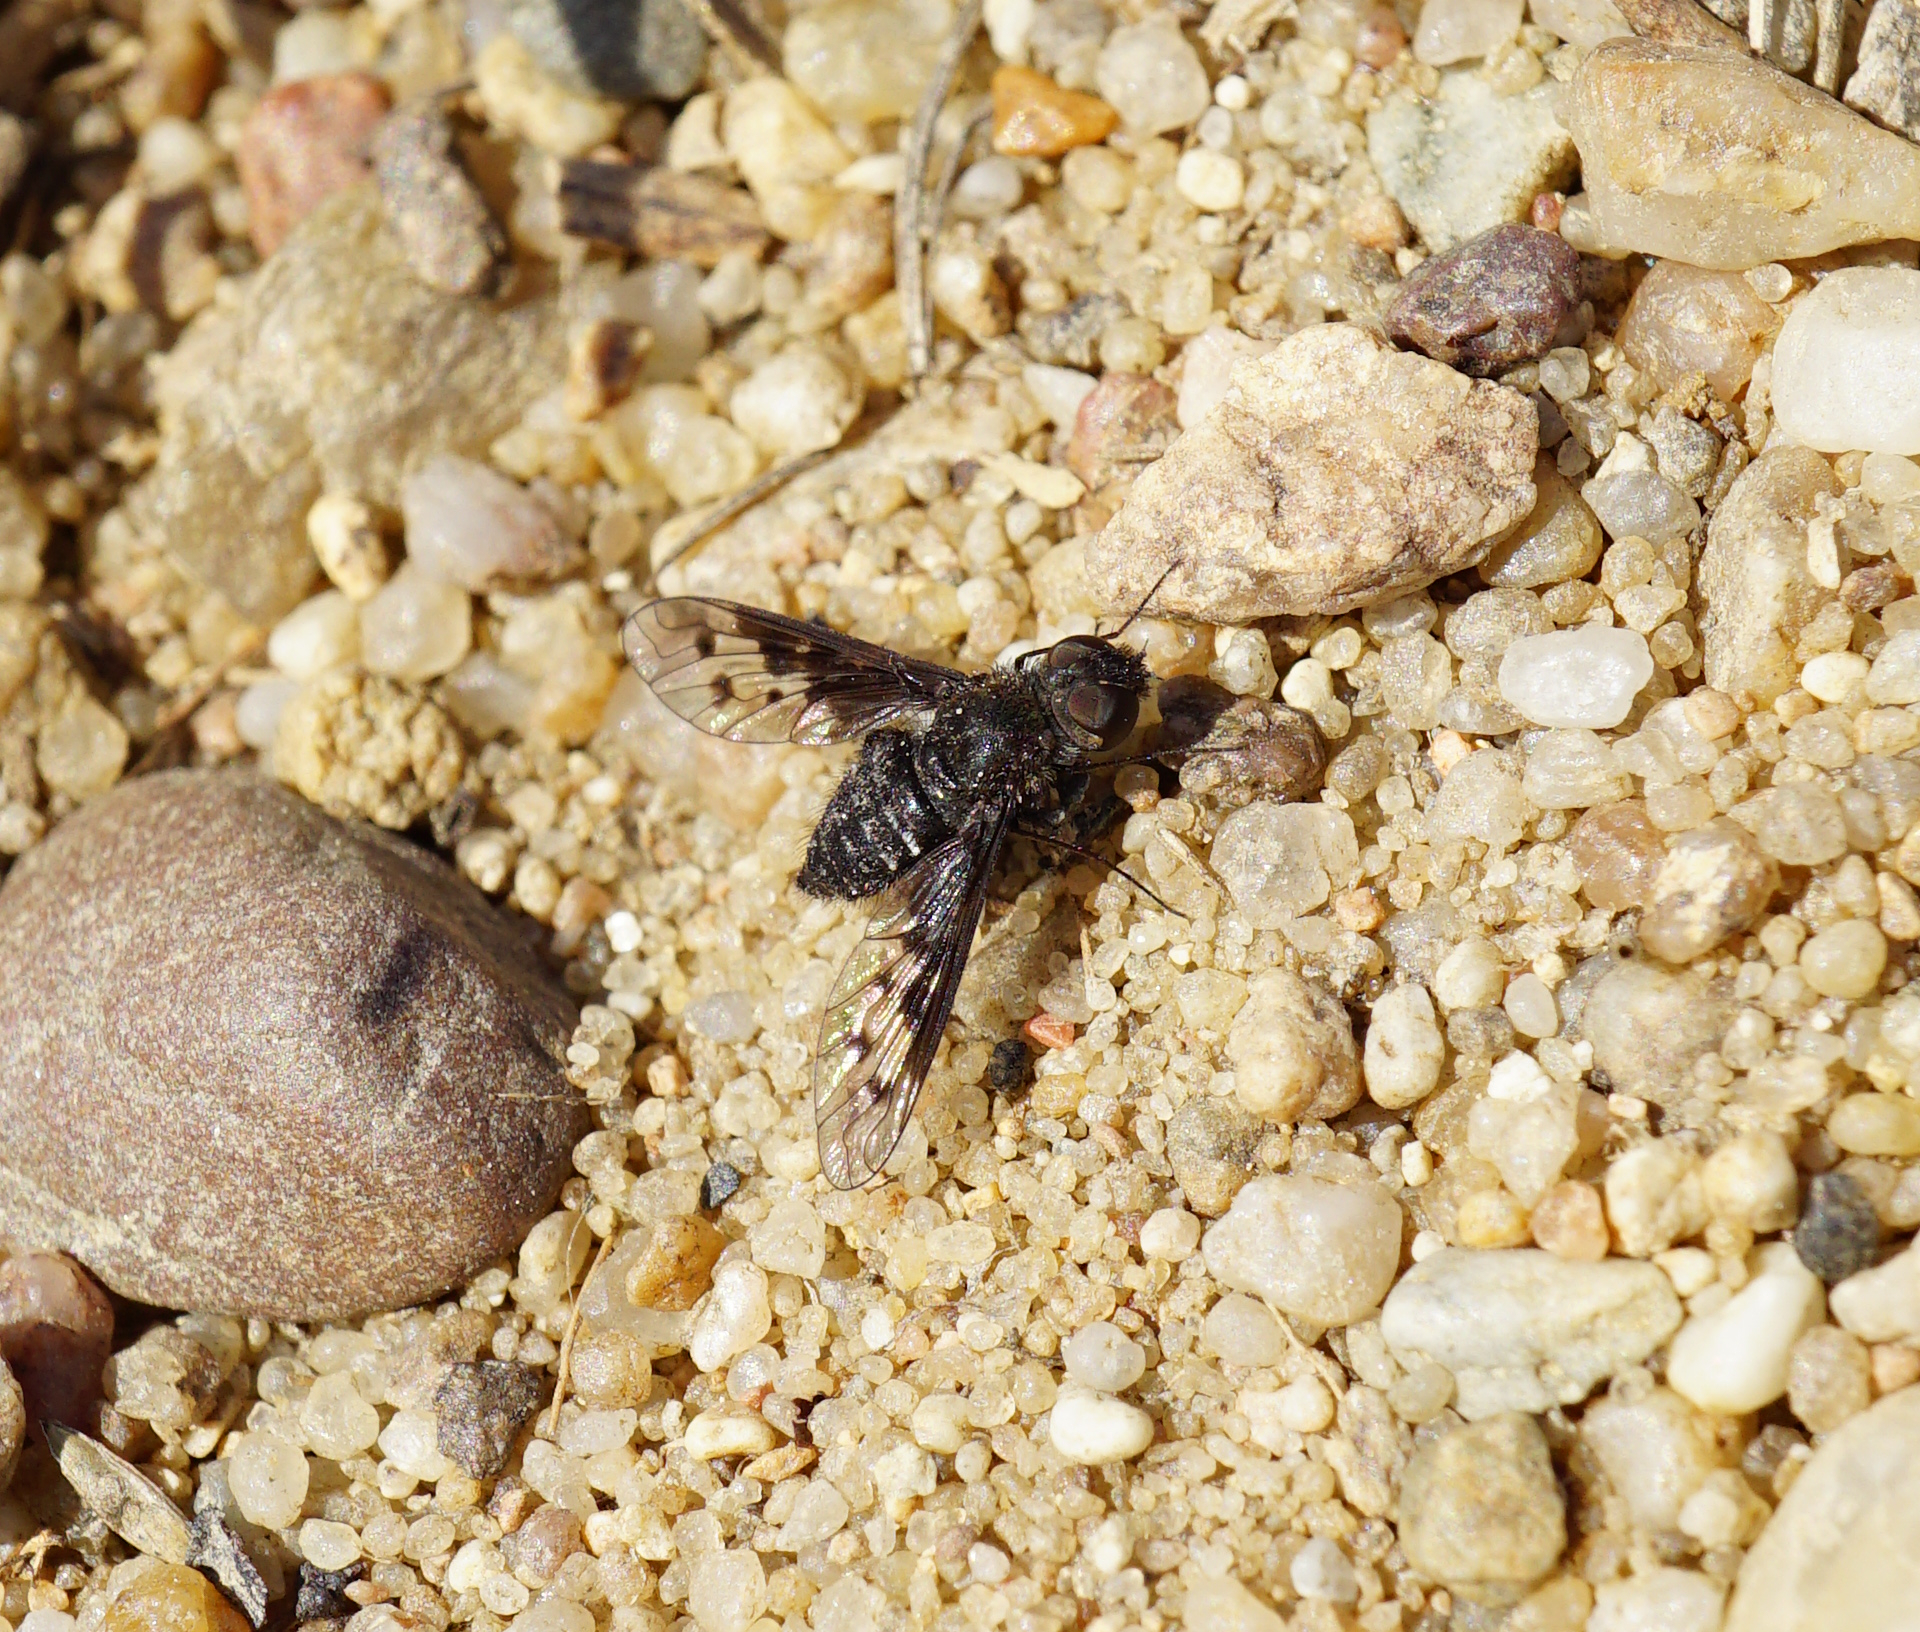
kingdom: Animalia
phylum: Arthropoda
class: Insecta
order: Diptera
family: Bombyliidae
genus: Anthrax
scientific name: Anthrax varius
